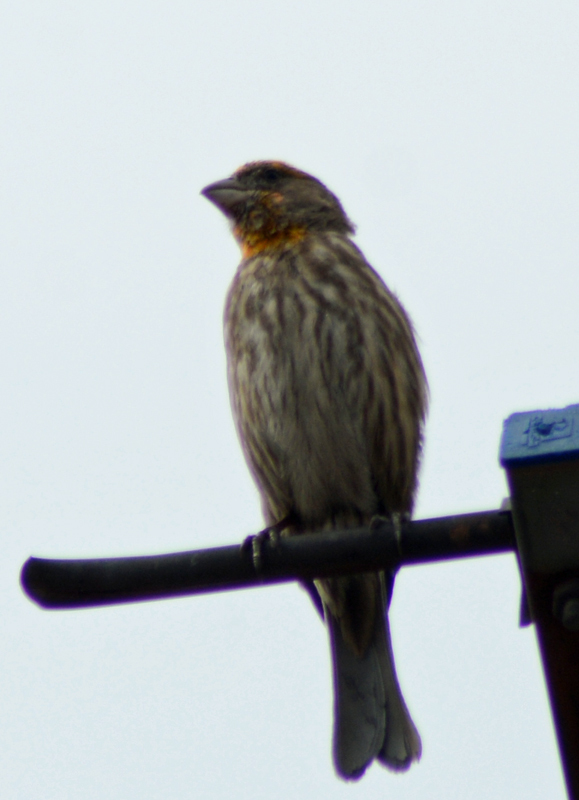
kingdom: Animalia
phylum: Chordata
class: Aves
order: Passeriformes
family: Fringillidae
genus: Haemorhous
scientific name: Haemorhous mexicanus
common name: House finch
